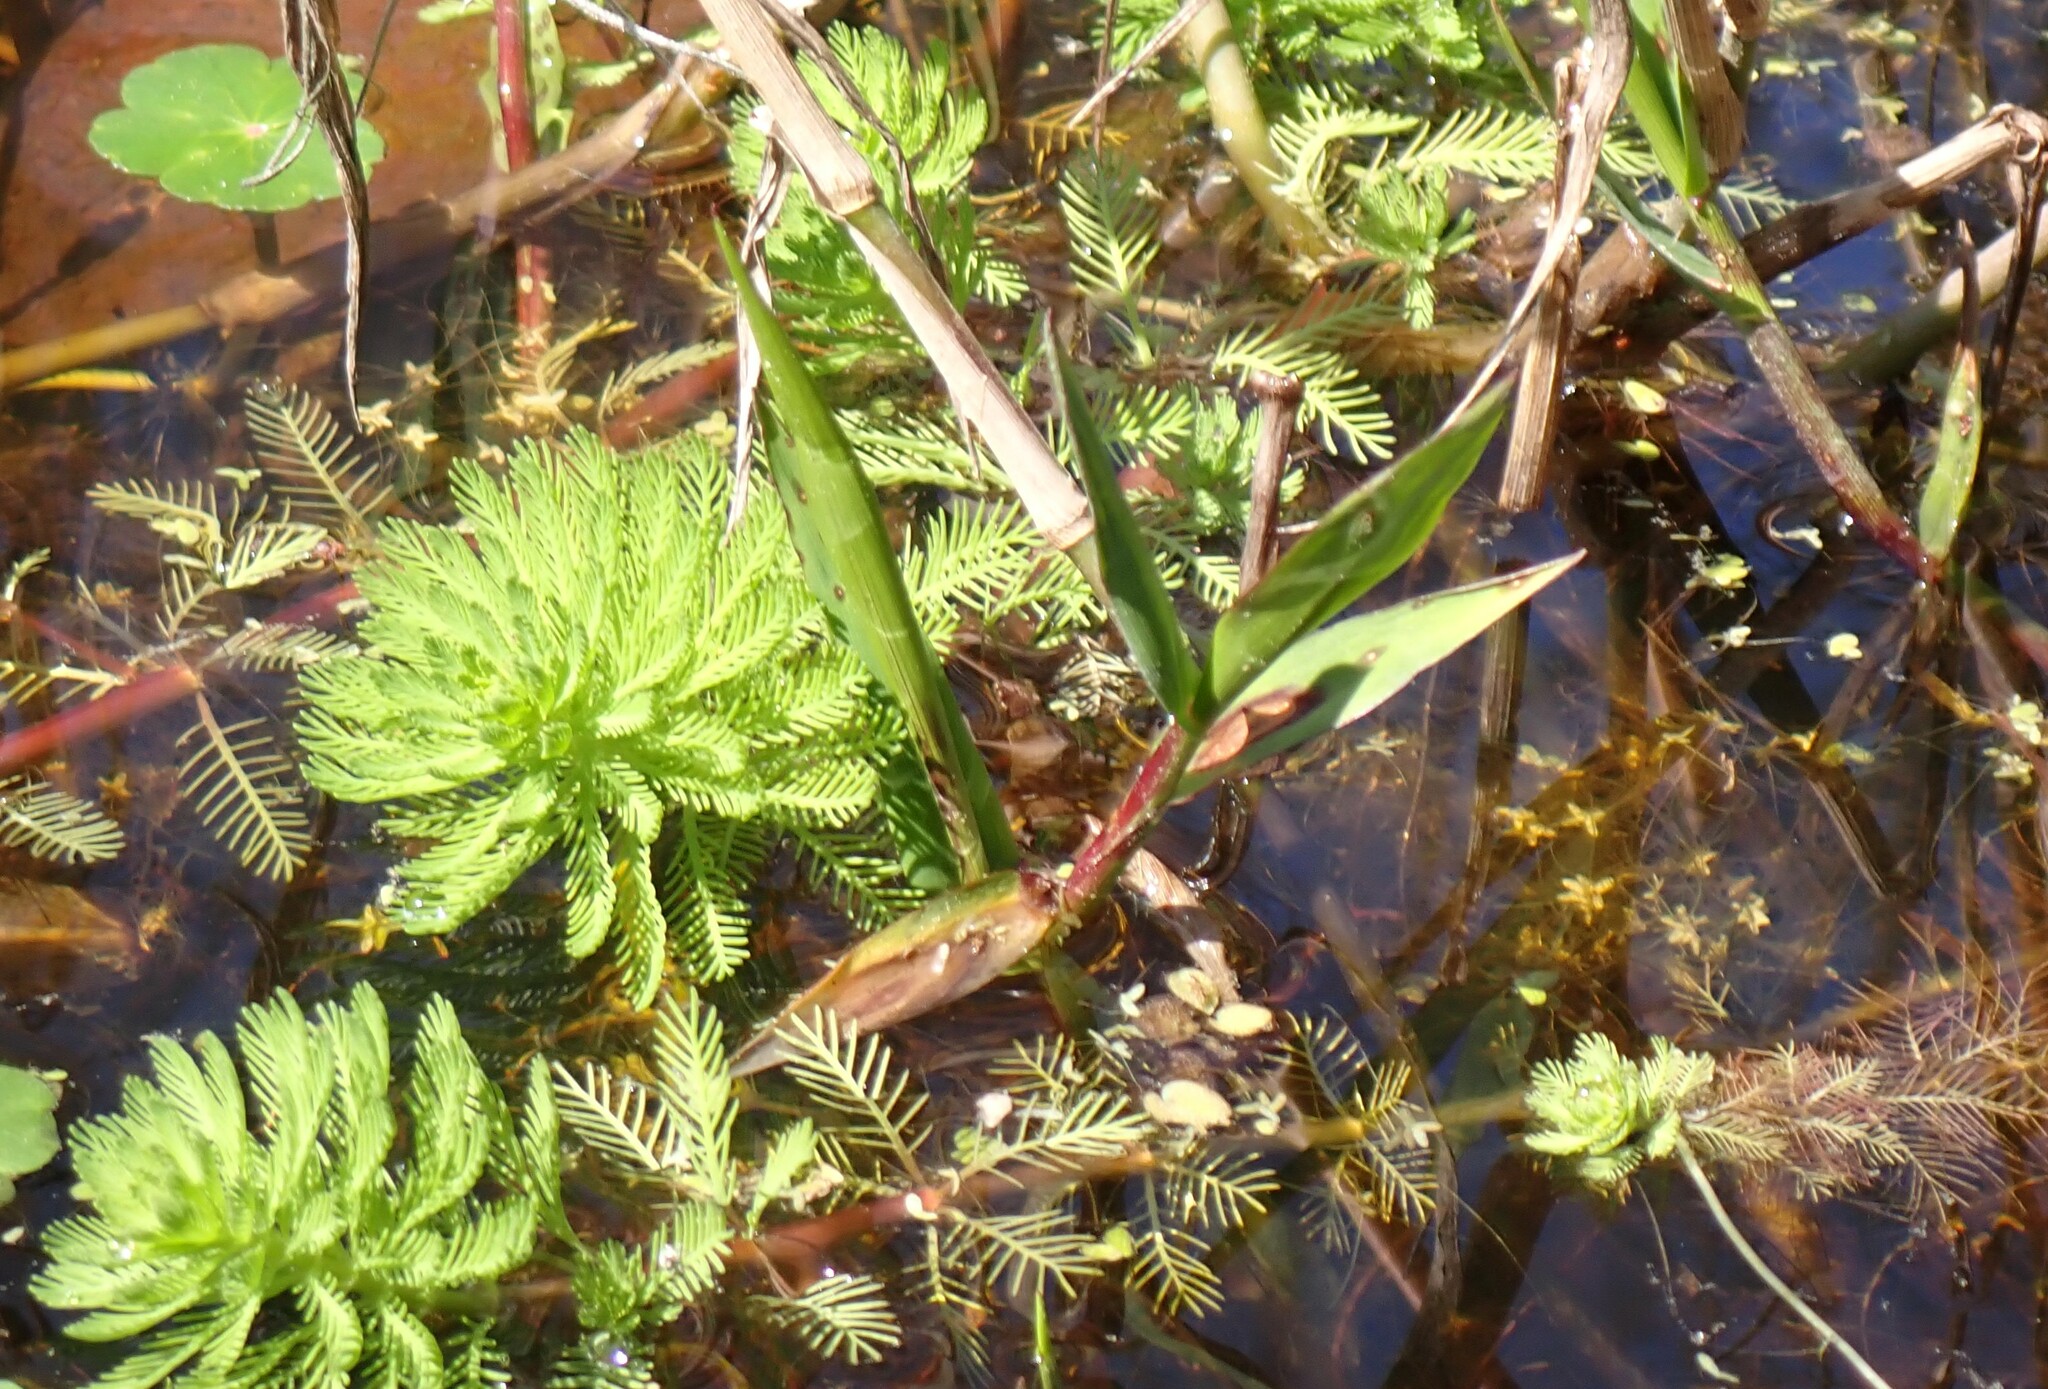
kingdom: Plantae
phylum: Tracheophyta
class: Magnoliopsida
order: Saxifragales
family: Haloragaceae
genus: Myriophyllum
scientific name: Myriophyllum aquaticum
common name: Parrot's feather
